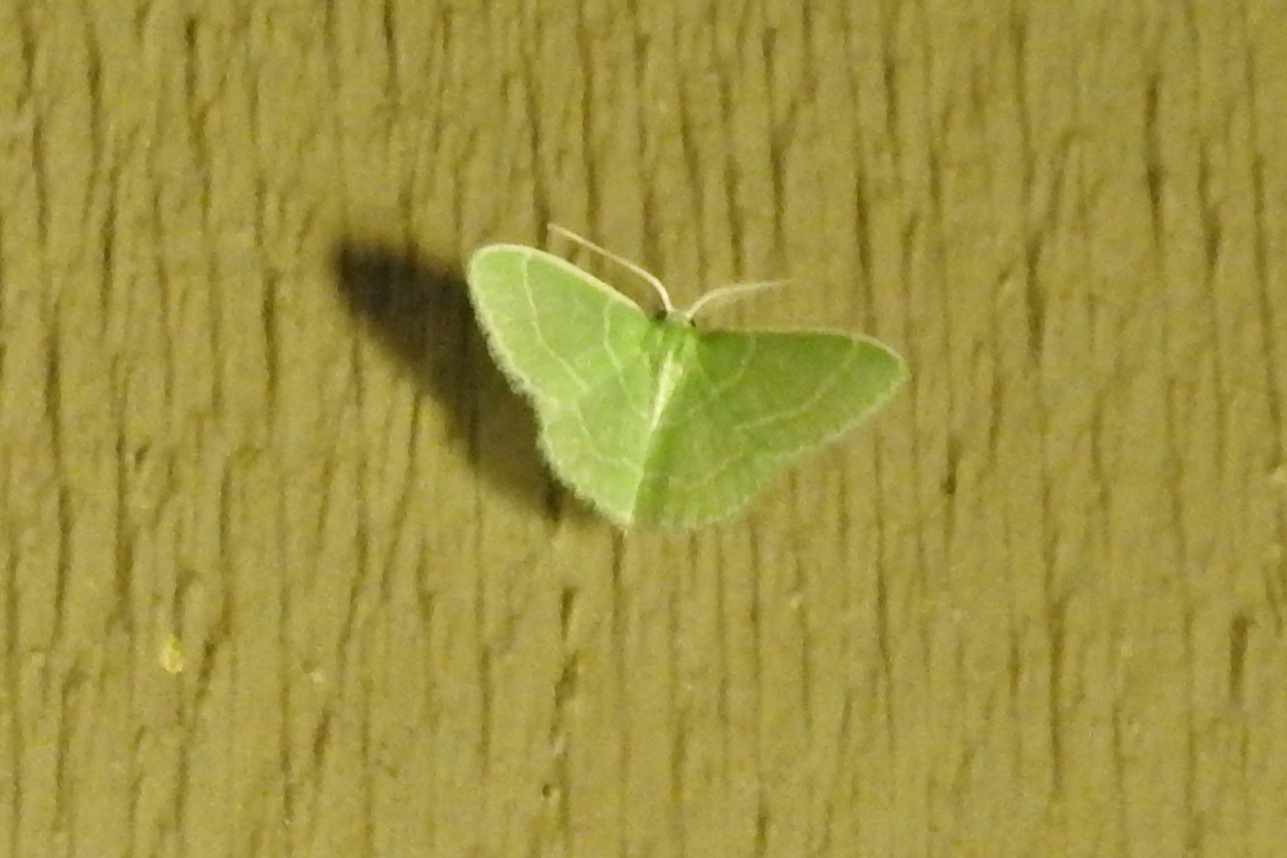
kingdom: Animalia
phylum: Arthropoda
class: Insecta
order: Lepidoptera
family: Geometridae
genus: Synchlora
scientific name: Synchlora aerata
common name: Wavy-lined emerald
